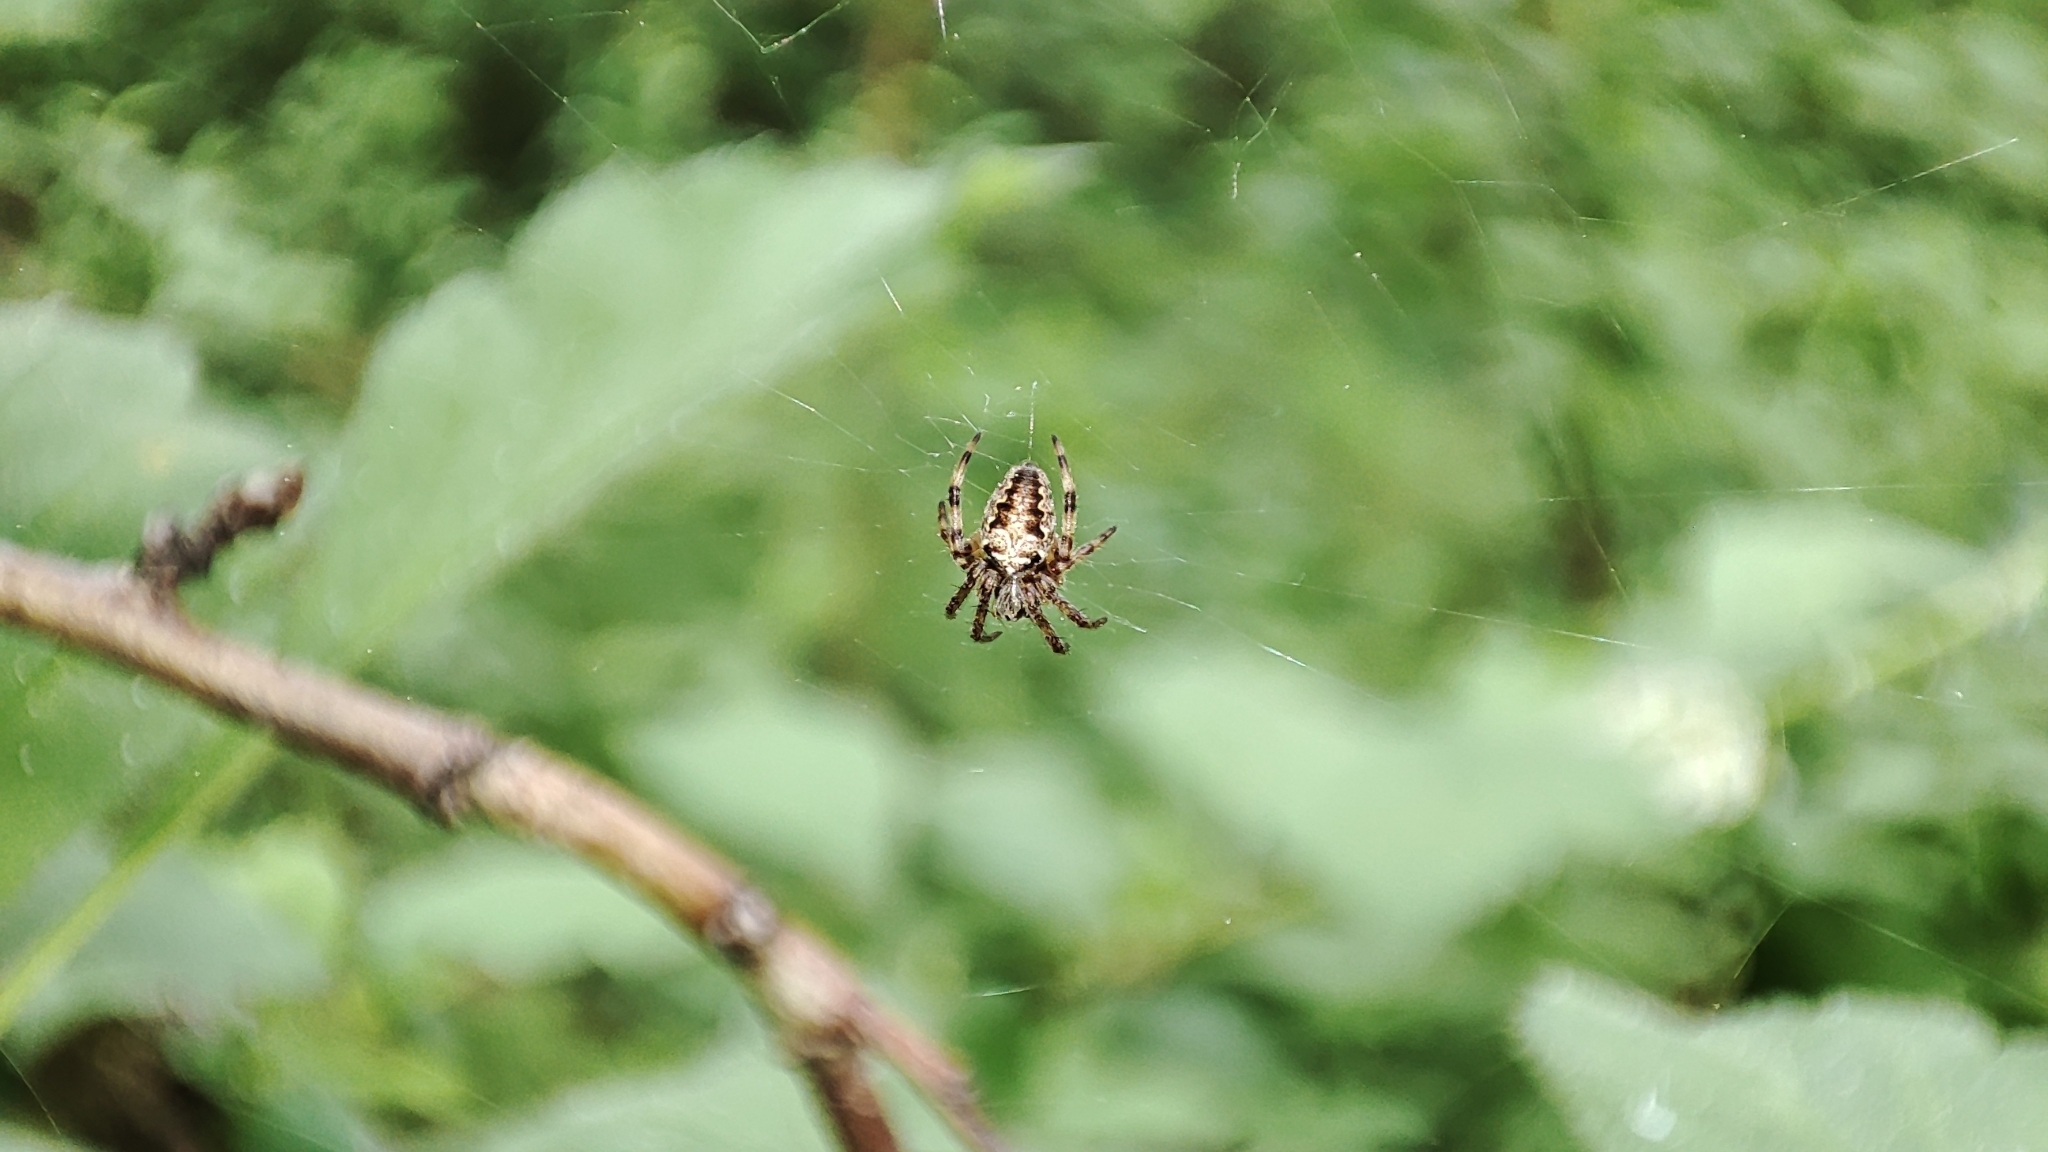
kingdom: Animalia
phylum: Arthropoda
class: Arachnida
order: Araneae
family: Araneidae
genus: Araneus
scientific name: Araneus diadematus
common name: Cross orbweaver
